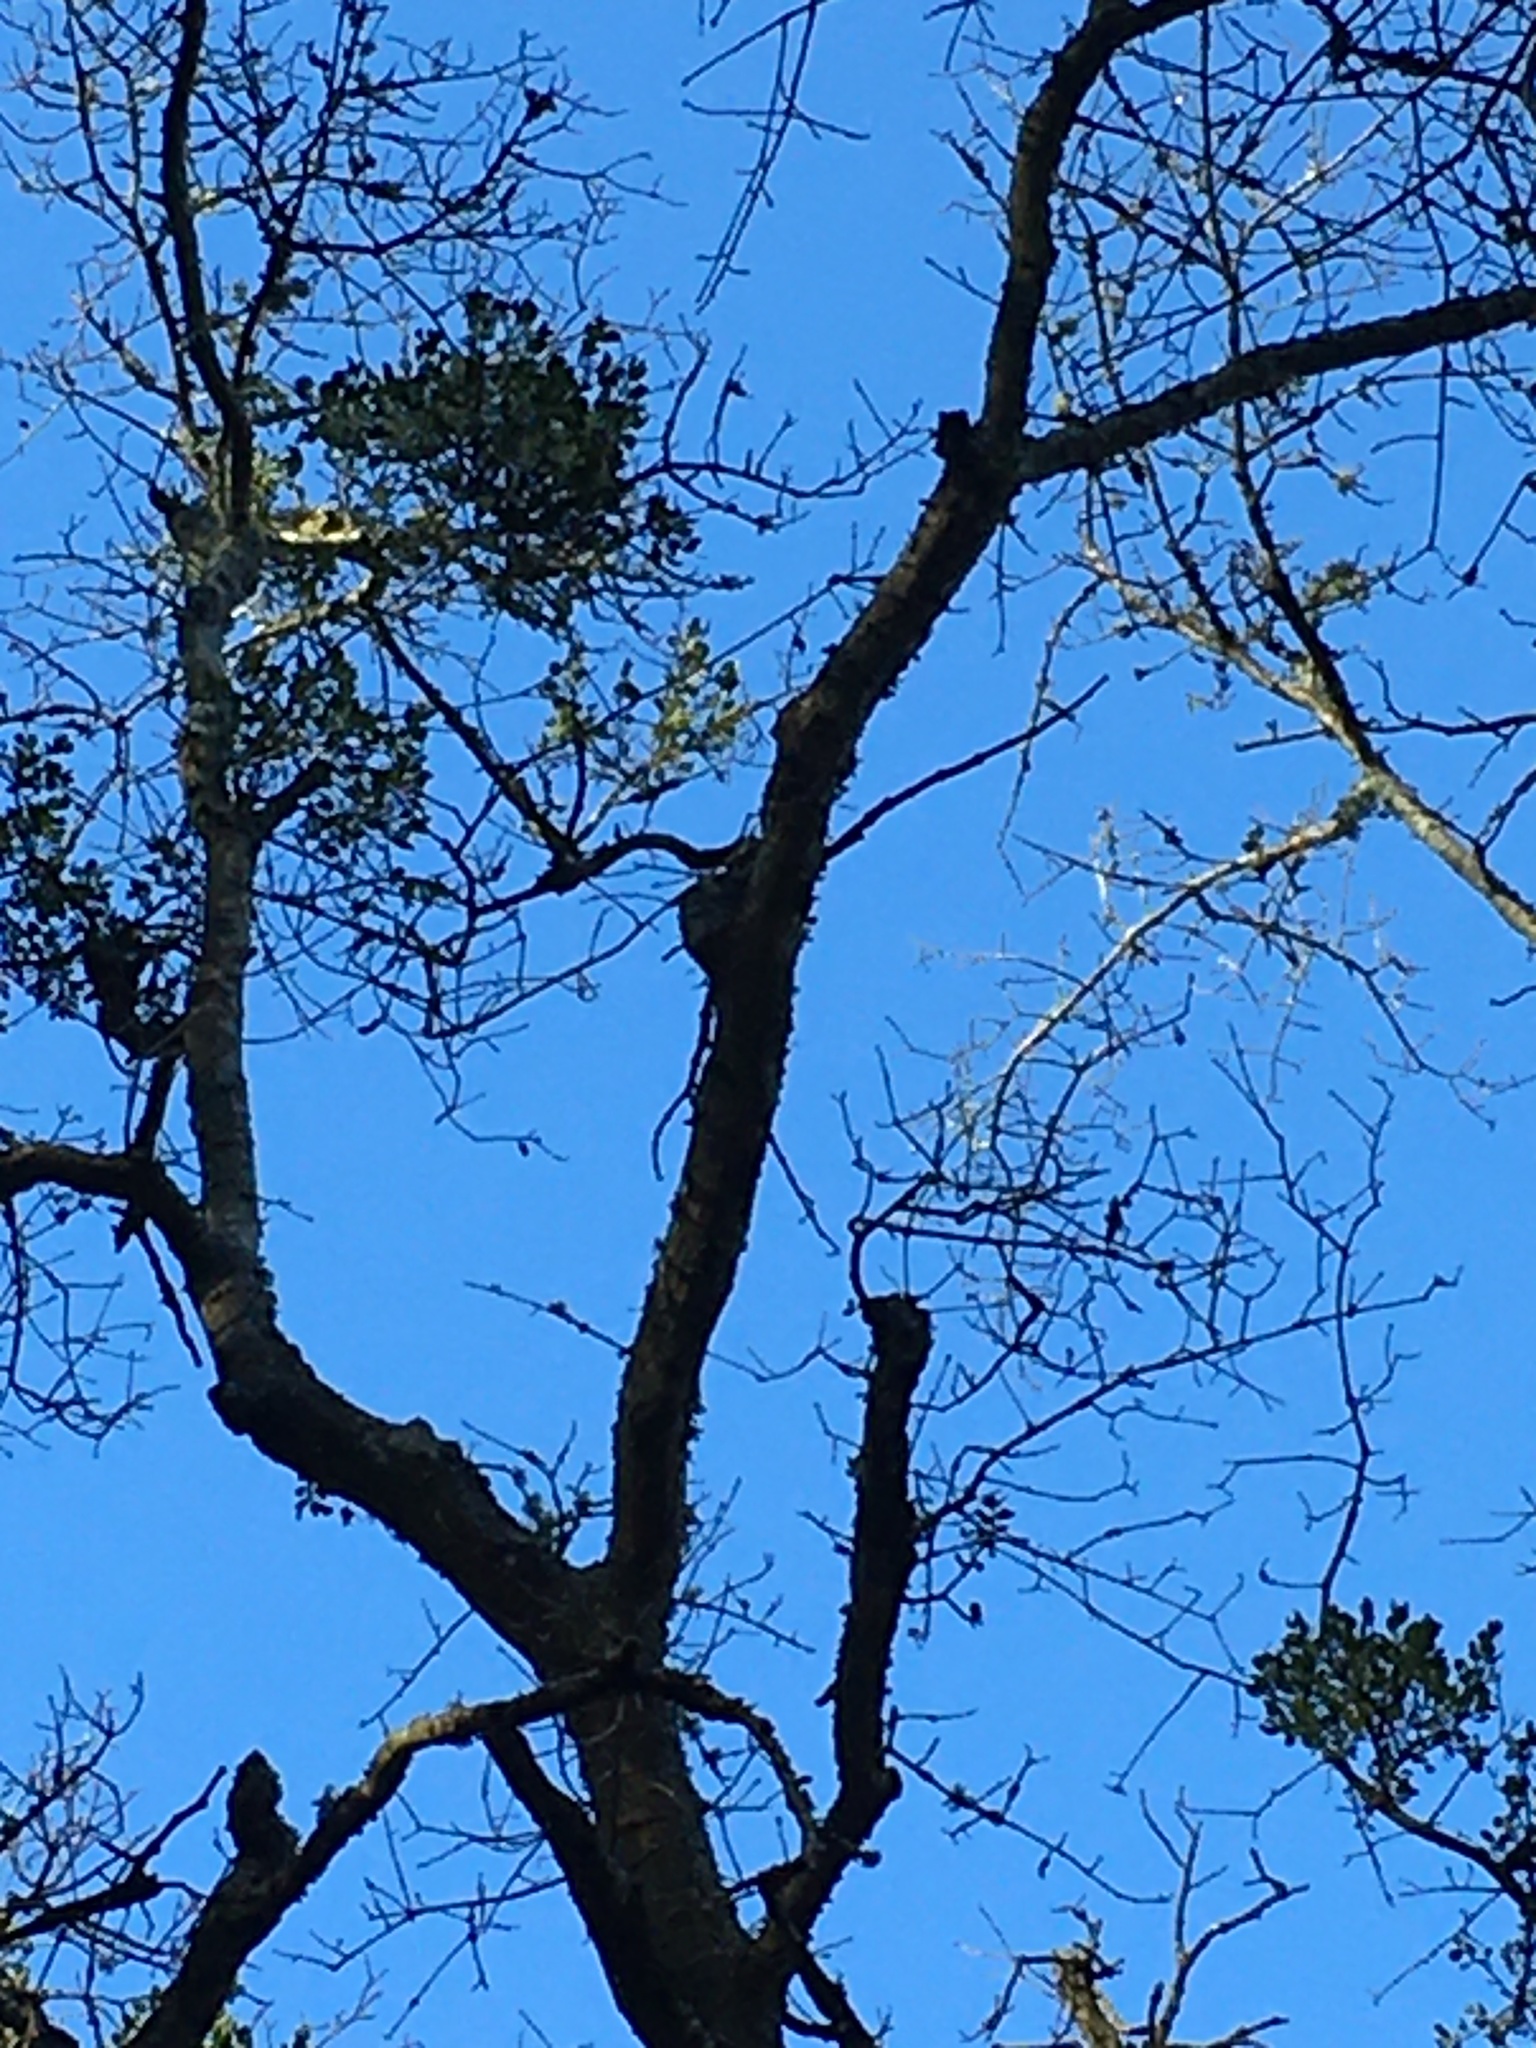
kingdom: Plantae
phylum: Tracheophyta
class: Magnoliopsida
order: Santalales
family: Viscaceae
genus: Phoradendron
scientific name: Phoradendron leucarpum
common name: Pacific mistletoe
